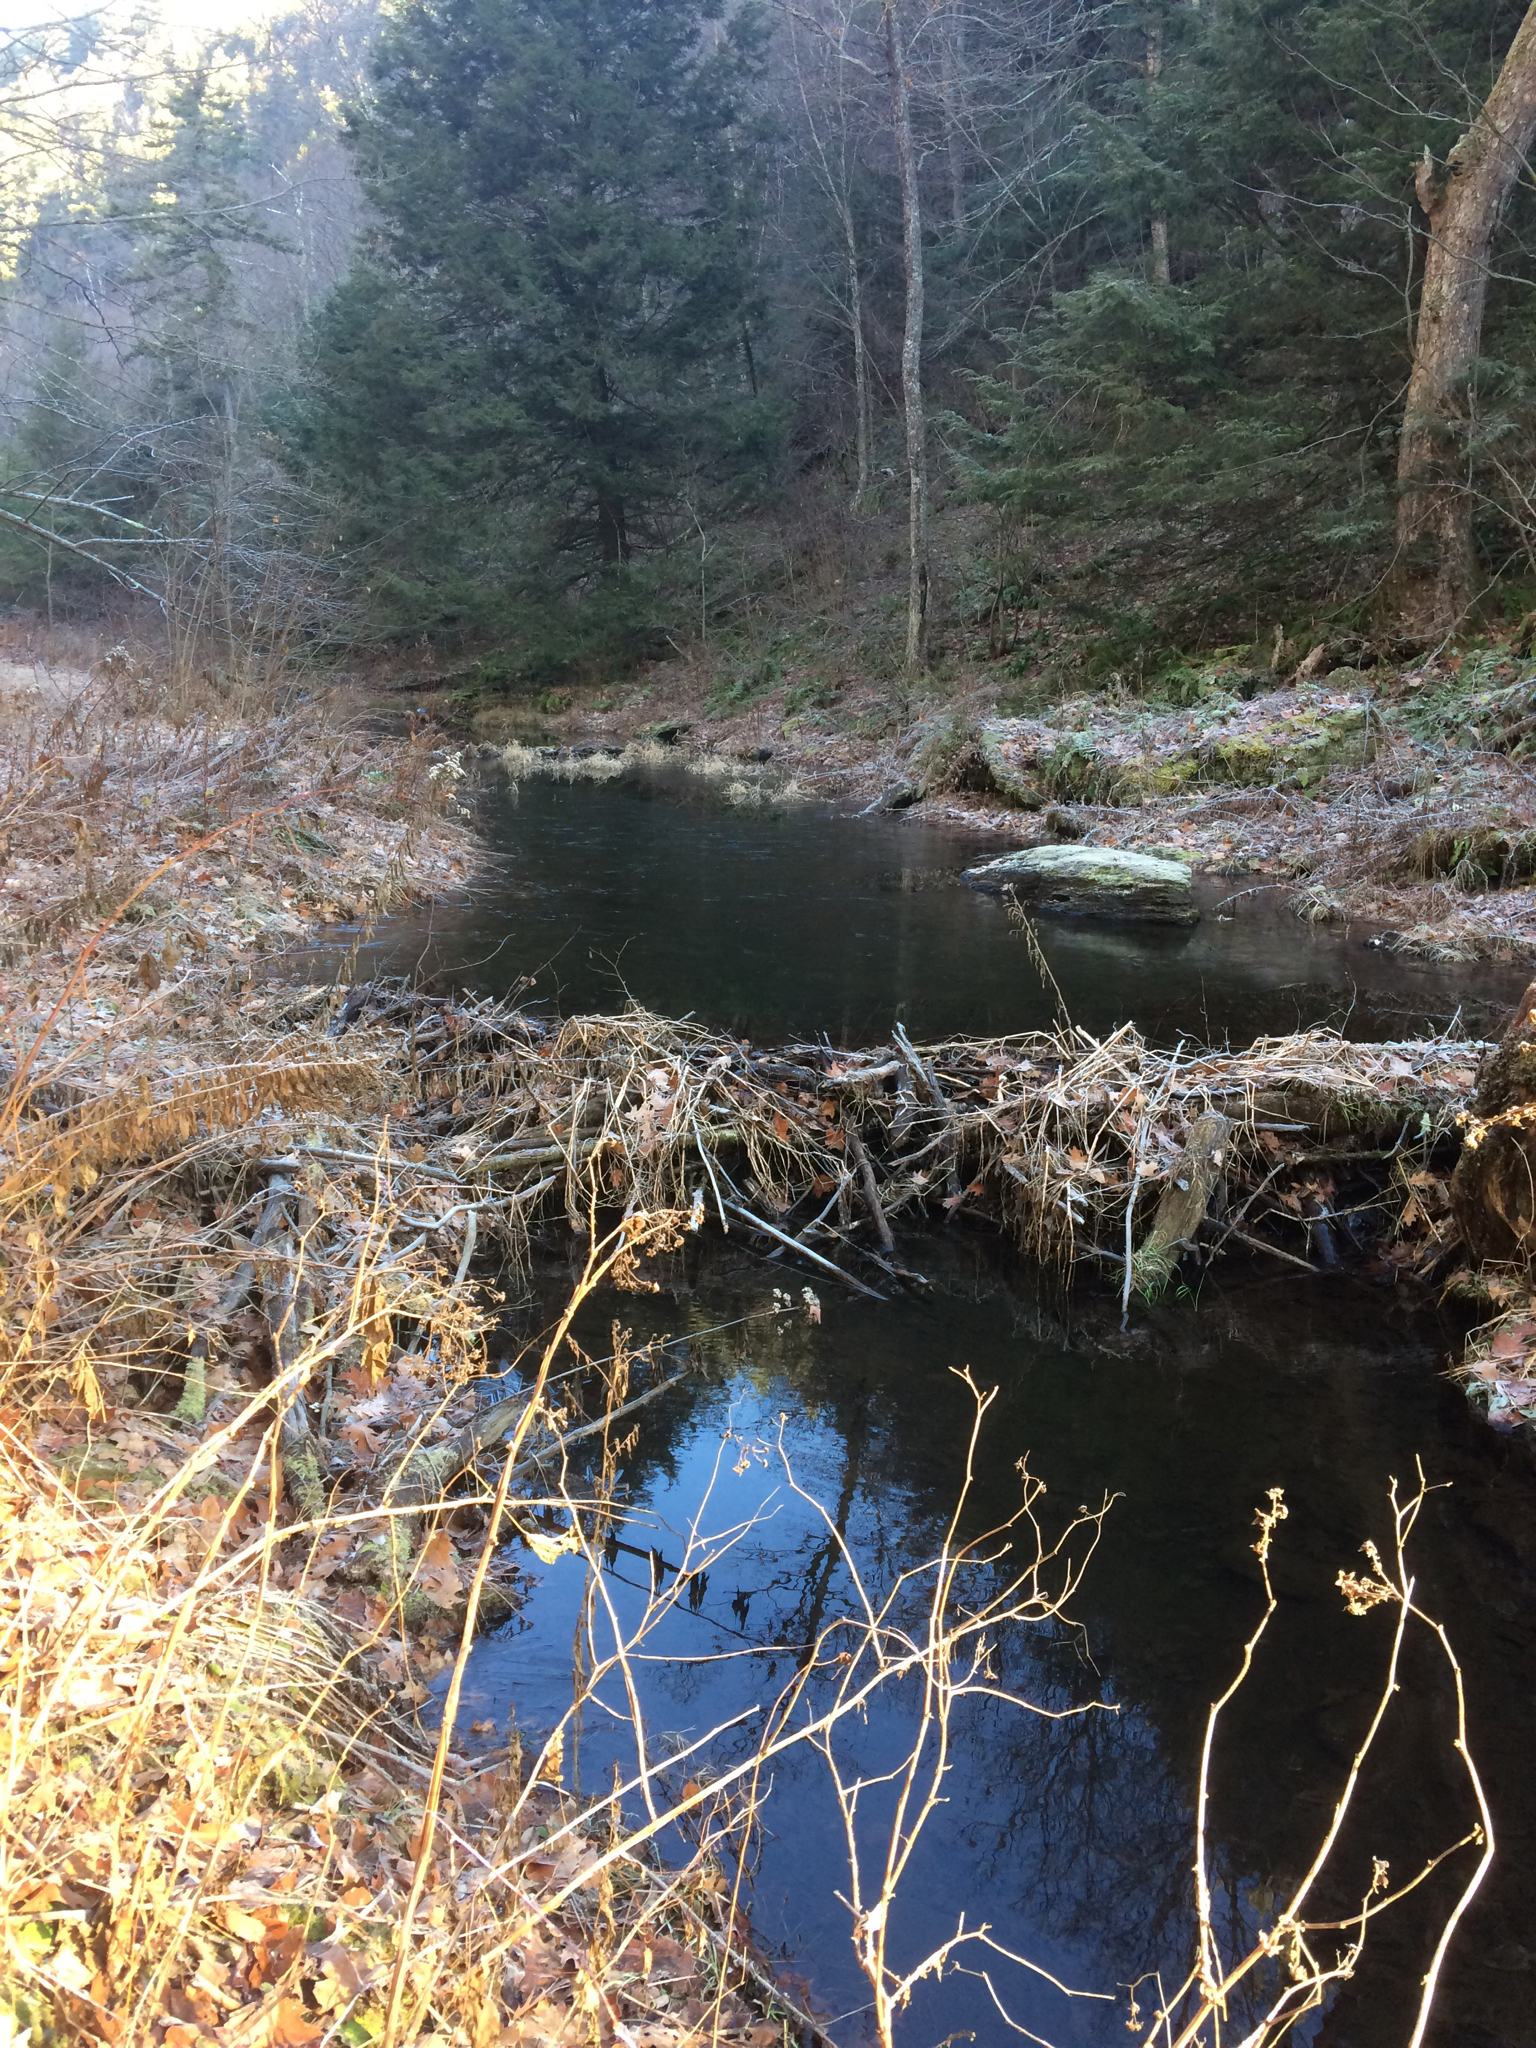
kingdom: Animalia
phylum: Chordata
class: Mammalia
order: Rodentia
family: Castoridae
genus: Castor
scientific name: Castor canadensis
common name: American beaver
